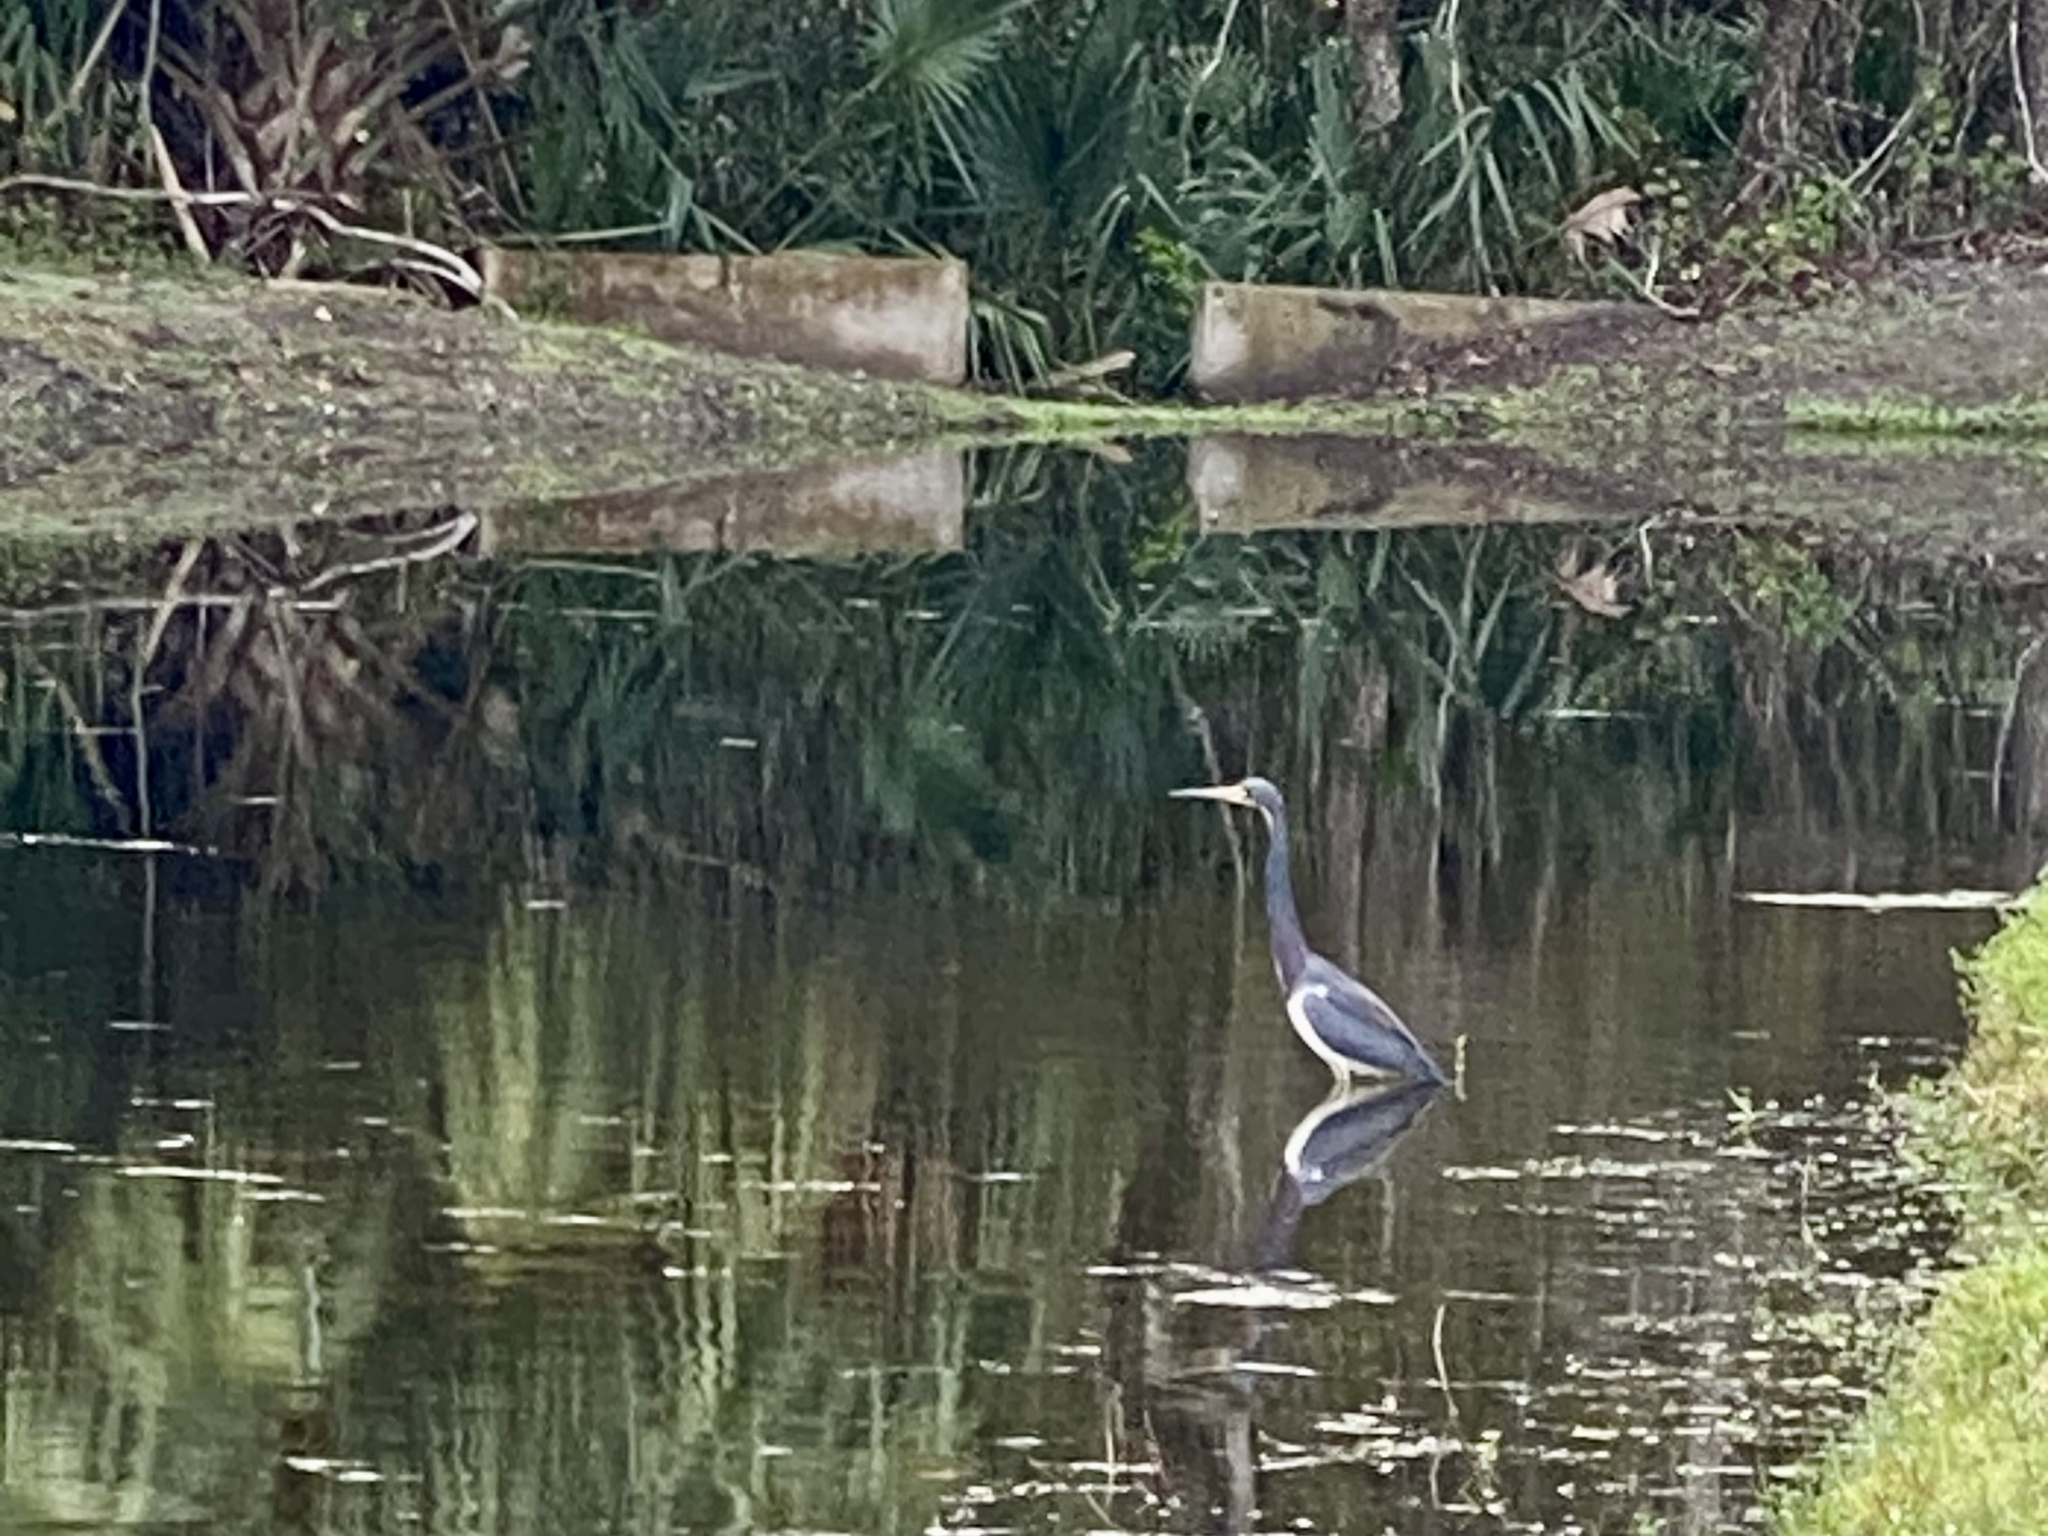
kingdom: Animalia
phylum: Chordata
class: Aves
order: Pelecaniformes
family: Ardeidae
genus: Egretta
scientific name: Egretta tricolor
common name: Tricolored heron
